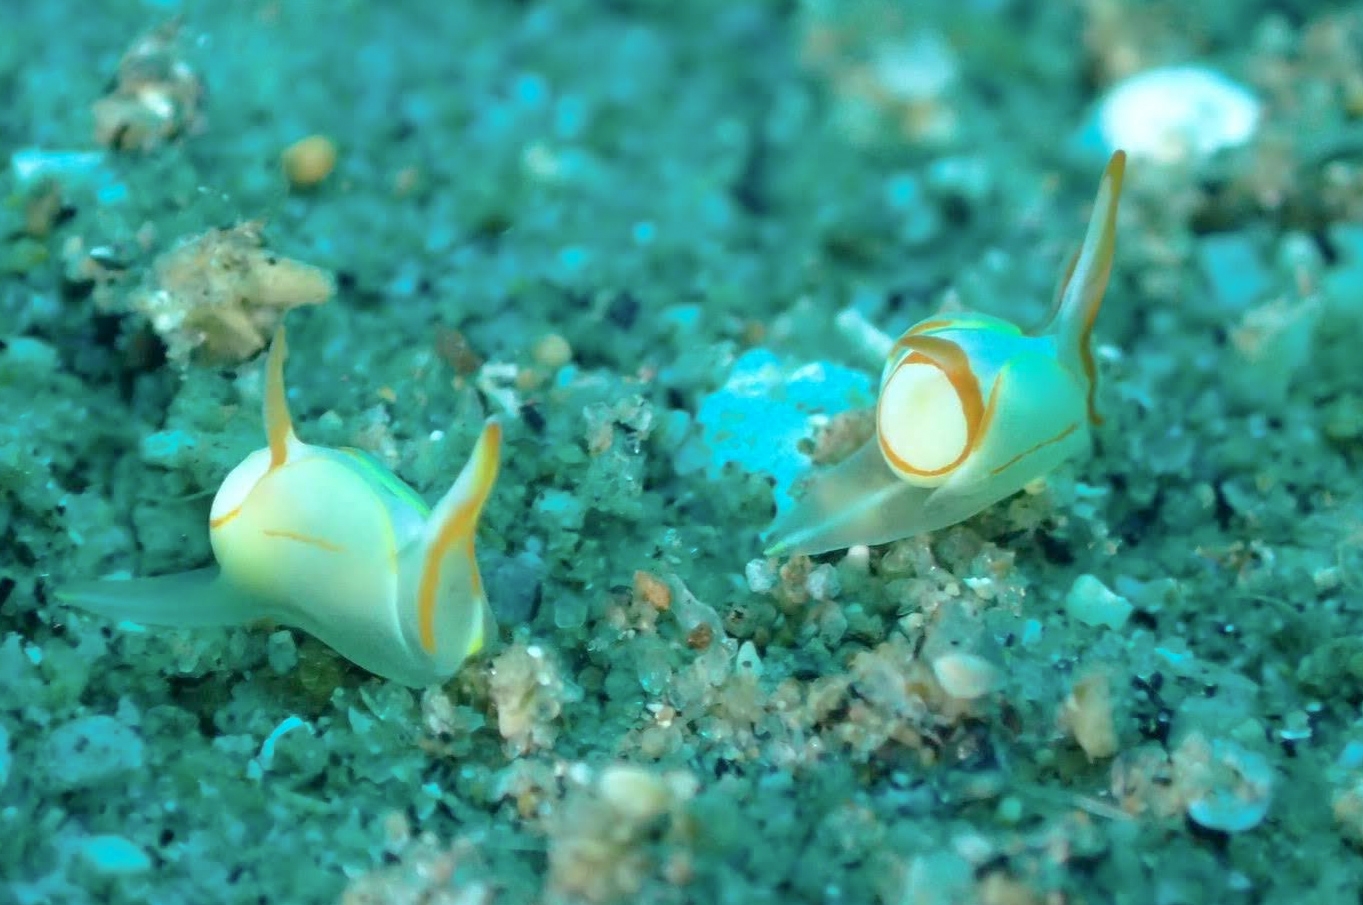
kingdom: Animalia
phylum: Mollusca
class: Gastropoda
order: Cephalaspidea
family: Gastropteridae
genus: Siphopteron
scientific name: Siphopteron makisig
